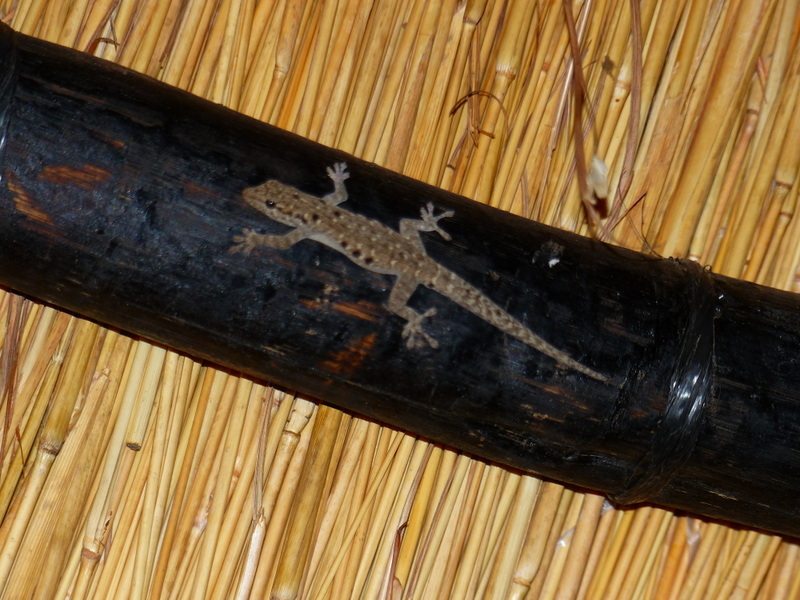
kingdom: Animalia
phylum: Chordata
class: Squamata
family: Gekkonidae
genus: Lygodactylus
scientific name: Lygodactylus stevensoni
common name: Stevenson's dwarf gecko
